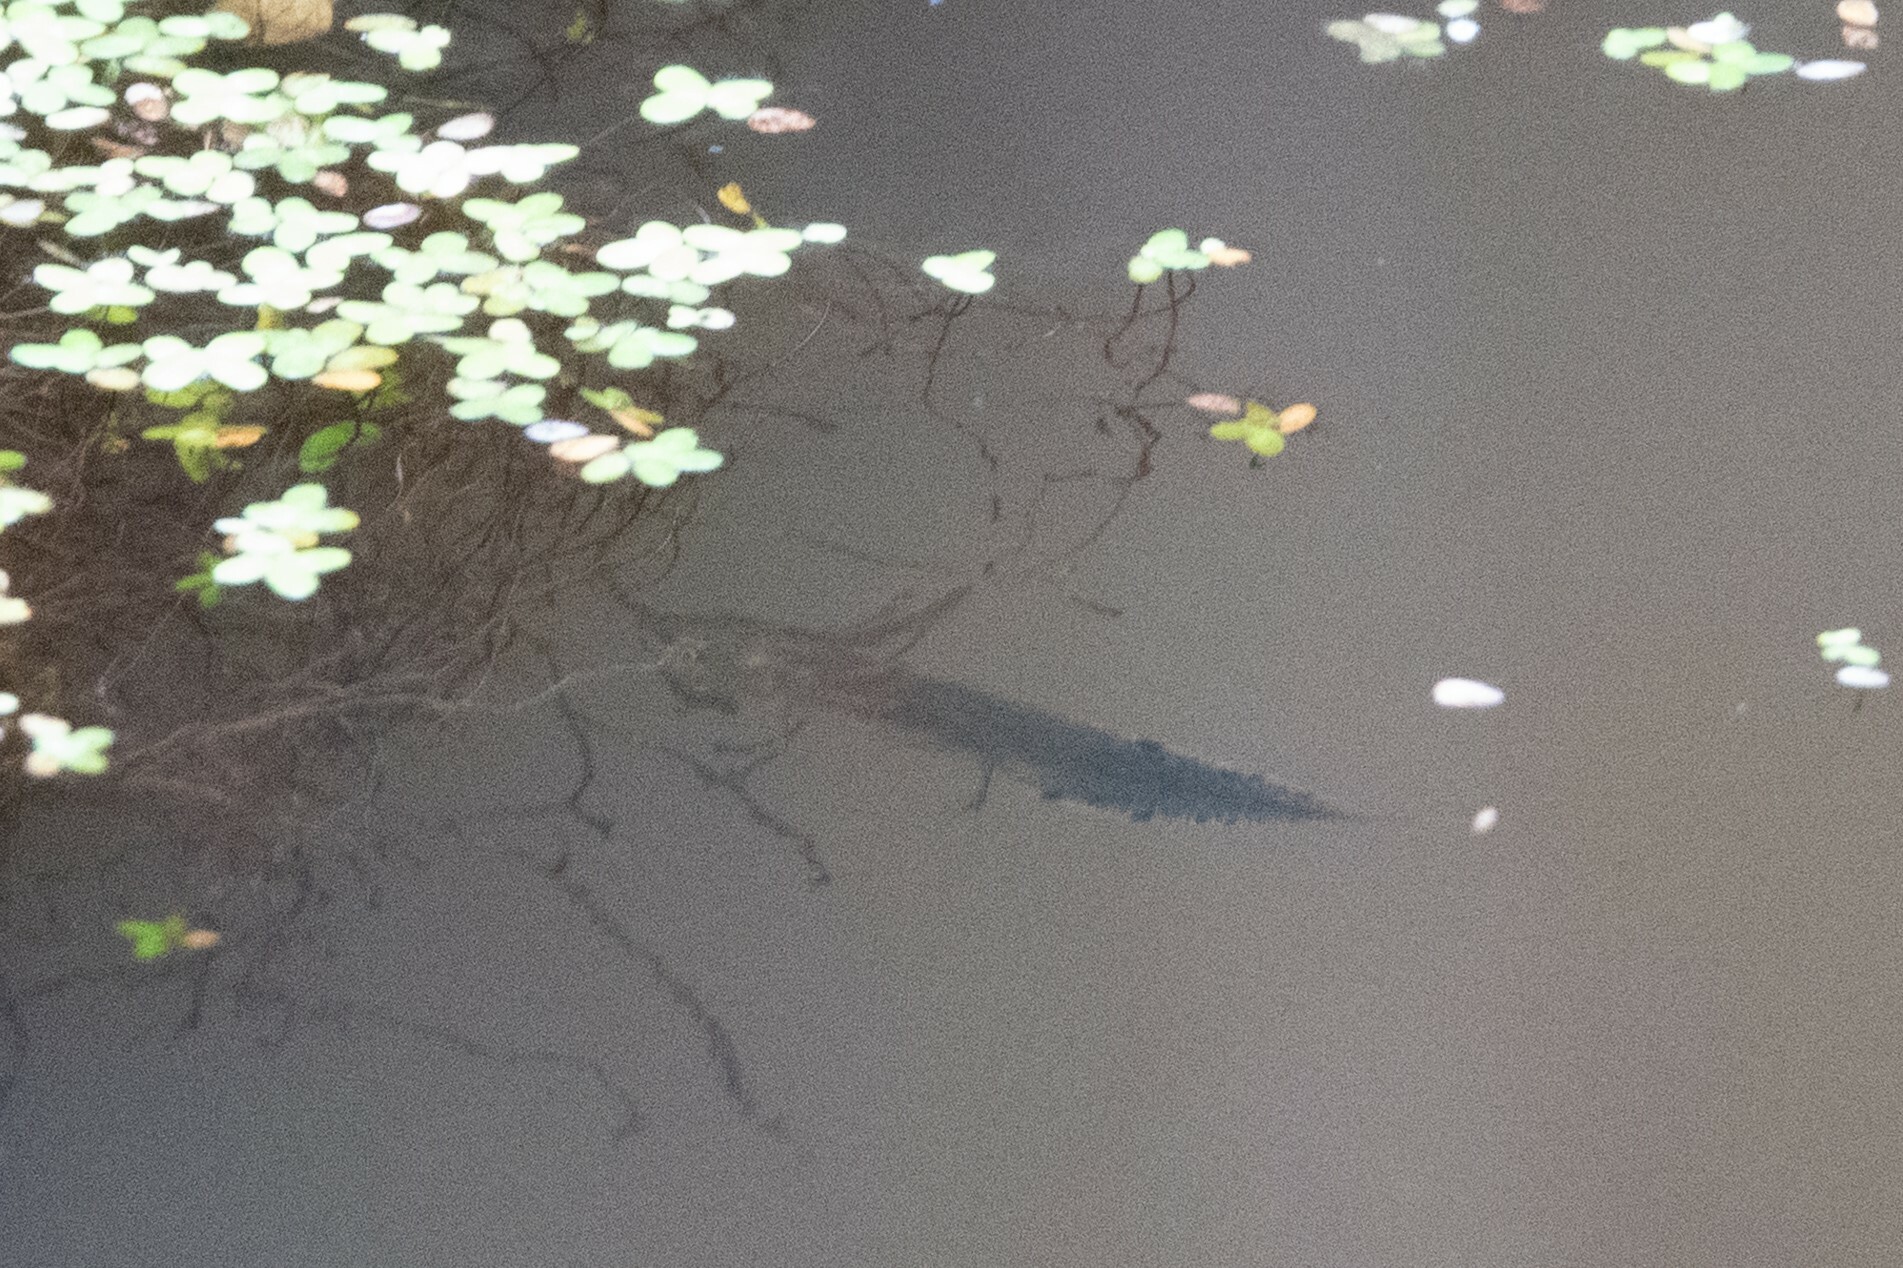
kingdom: Animalia
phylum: Chordata
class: Amphibia
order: Caudata
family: Salamandridae
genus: Triturus
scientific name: Triturus cristatus
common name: Crested newt
